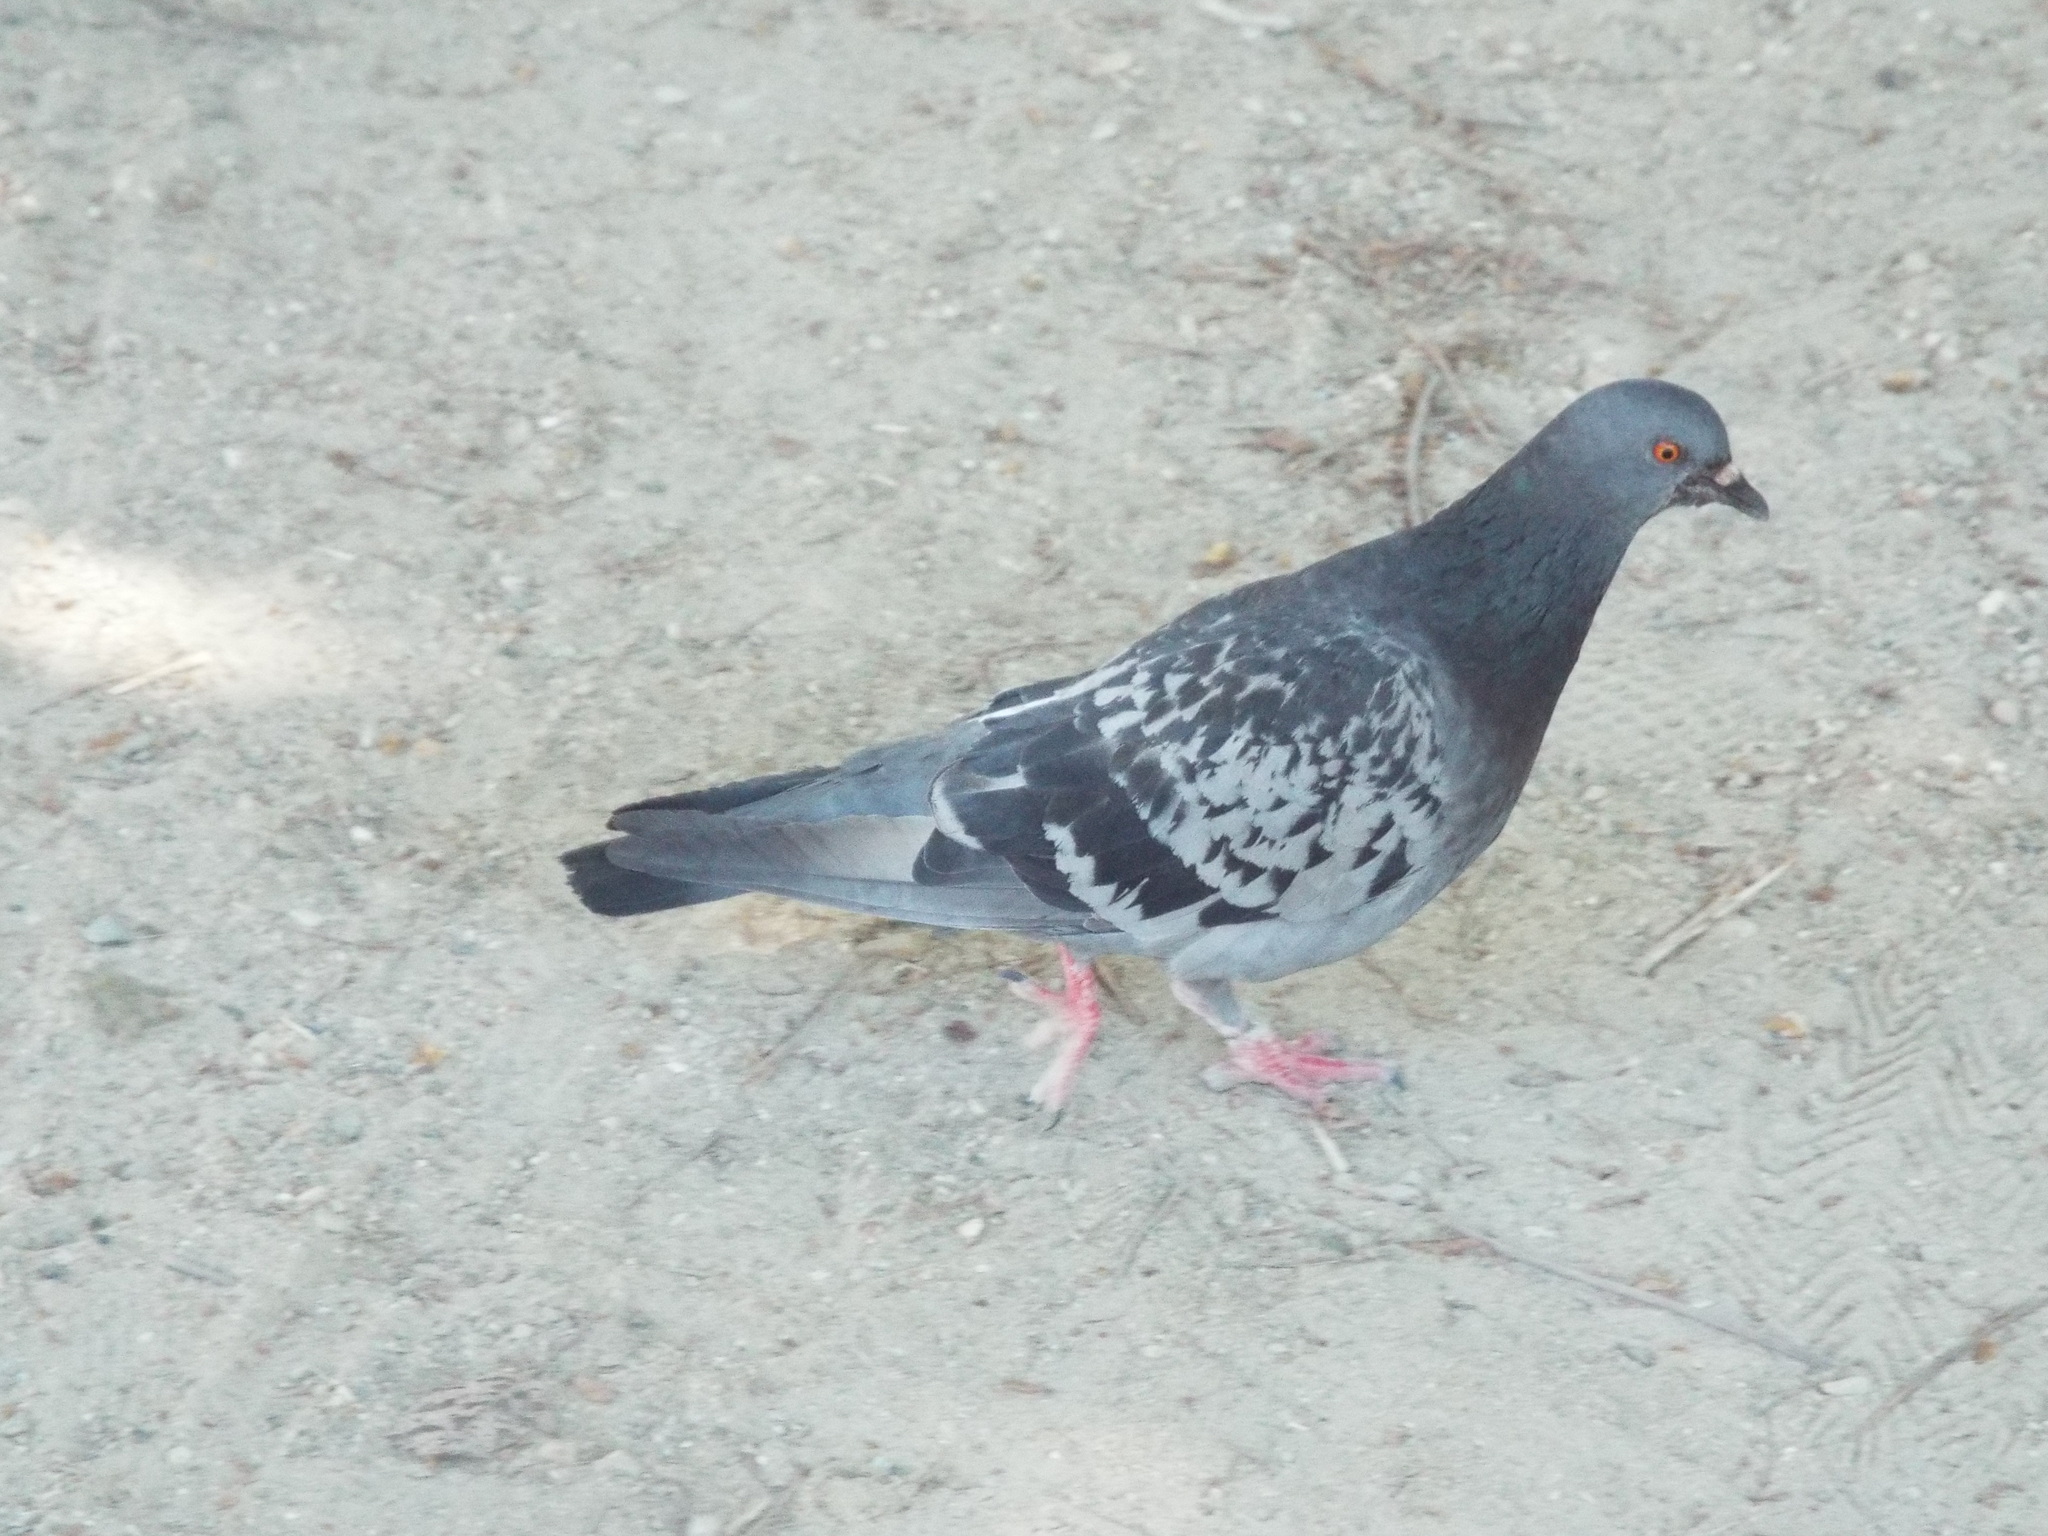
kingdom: Animalia
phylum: Chordata
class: Aves
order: Columbiformes
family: Columbidae
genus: Columba
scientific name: Columba livia
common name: Rock pigeon
